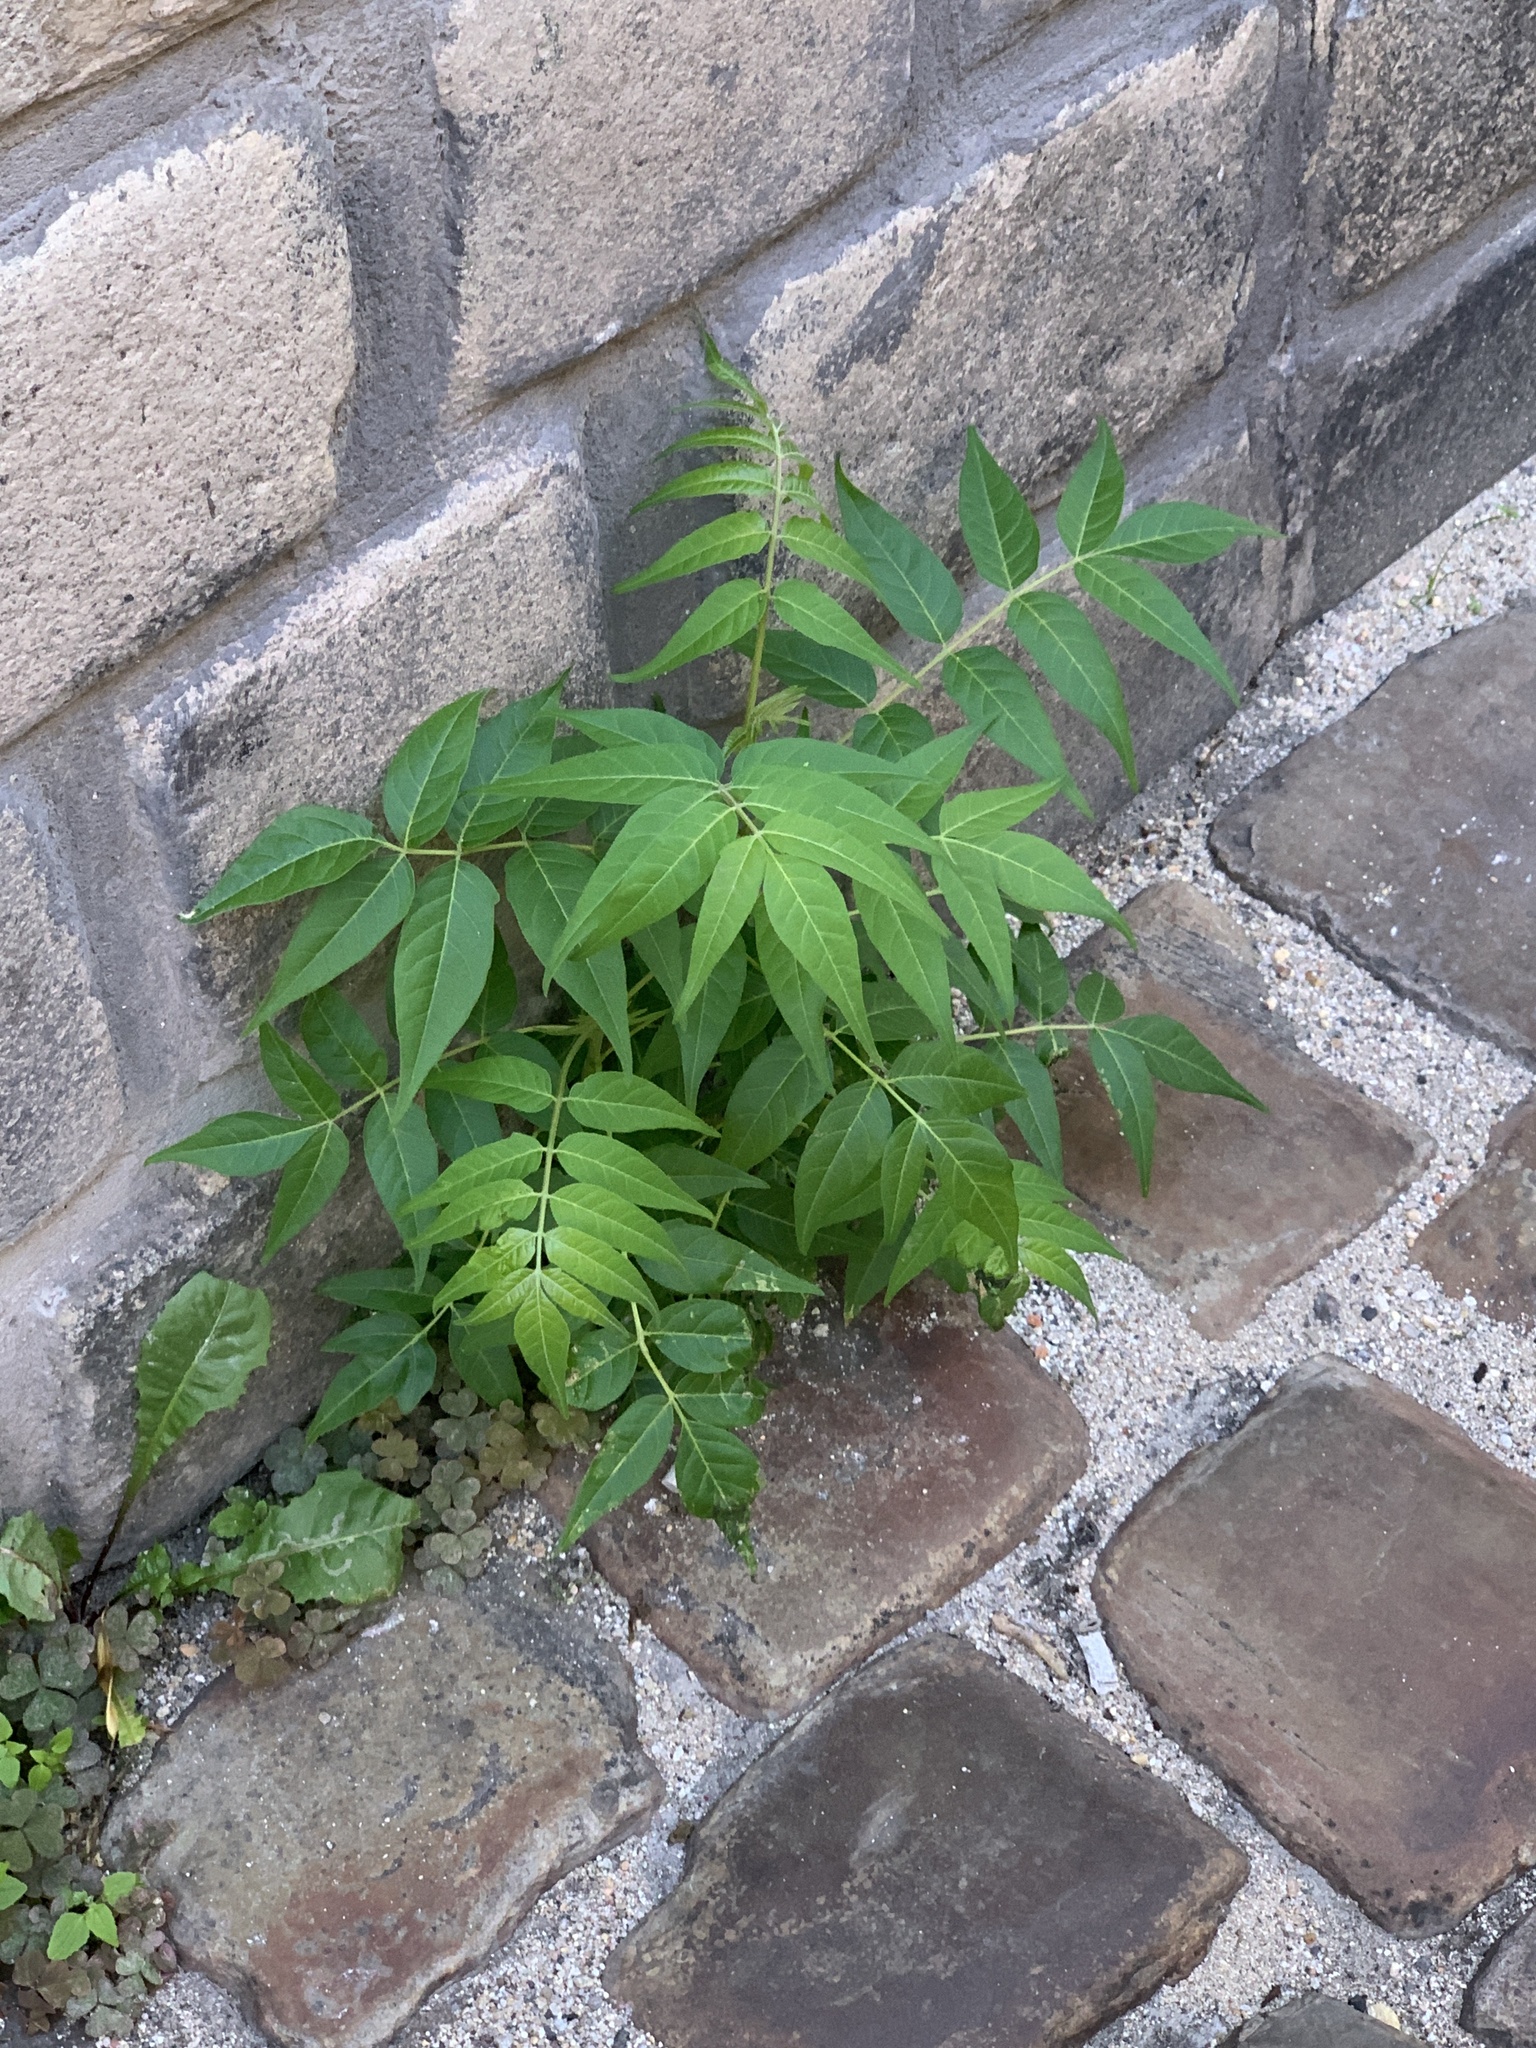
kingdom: Plantae
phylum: Tracheophyta
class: Magnoliopsida
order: Sapindales
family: Simaroubaceae
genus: Ailanthus
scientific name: Ailanthus altissima
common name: Tree-of-heaven
